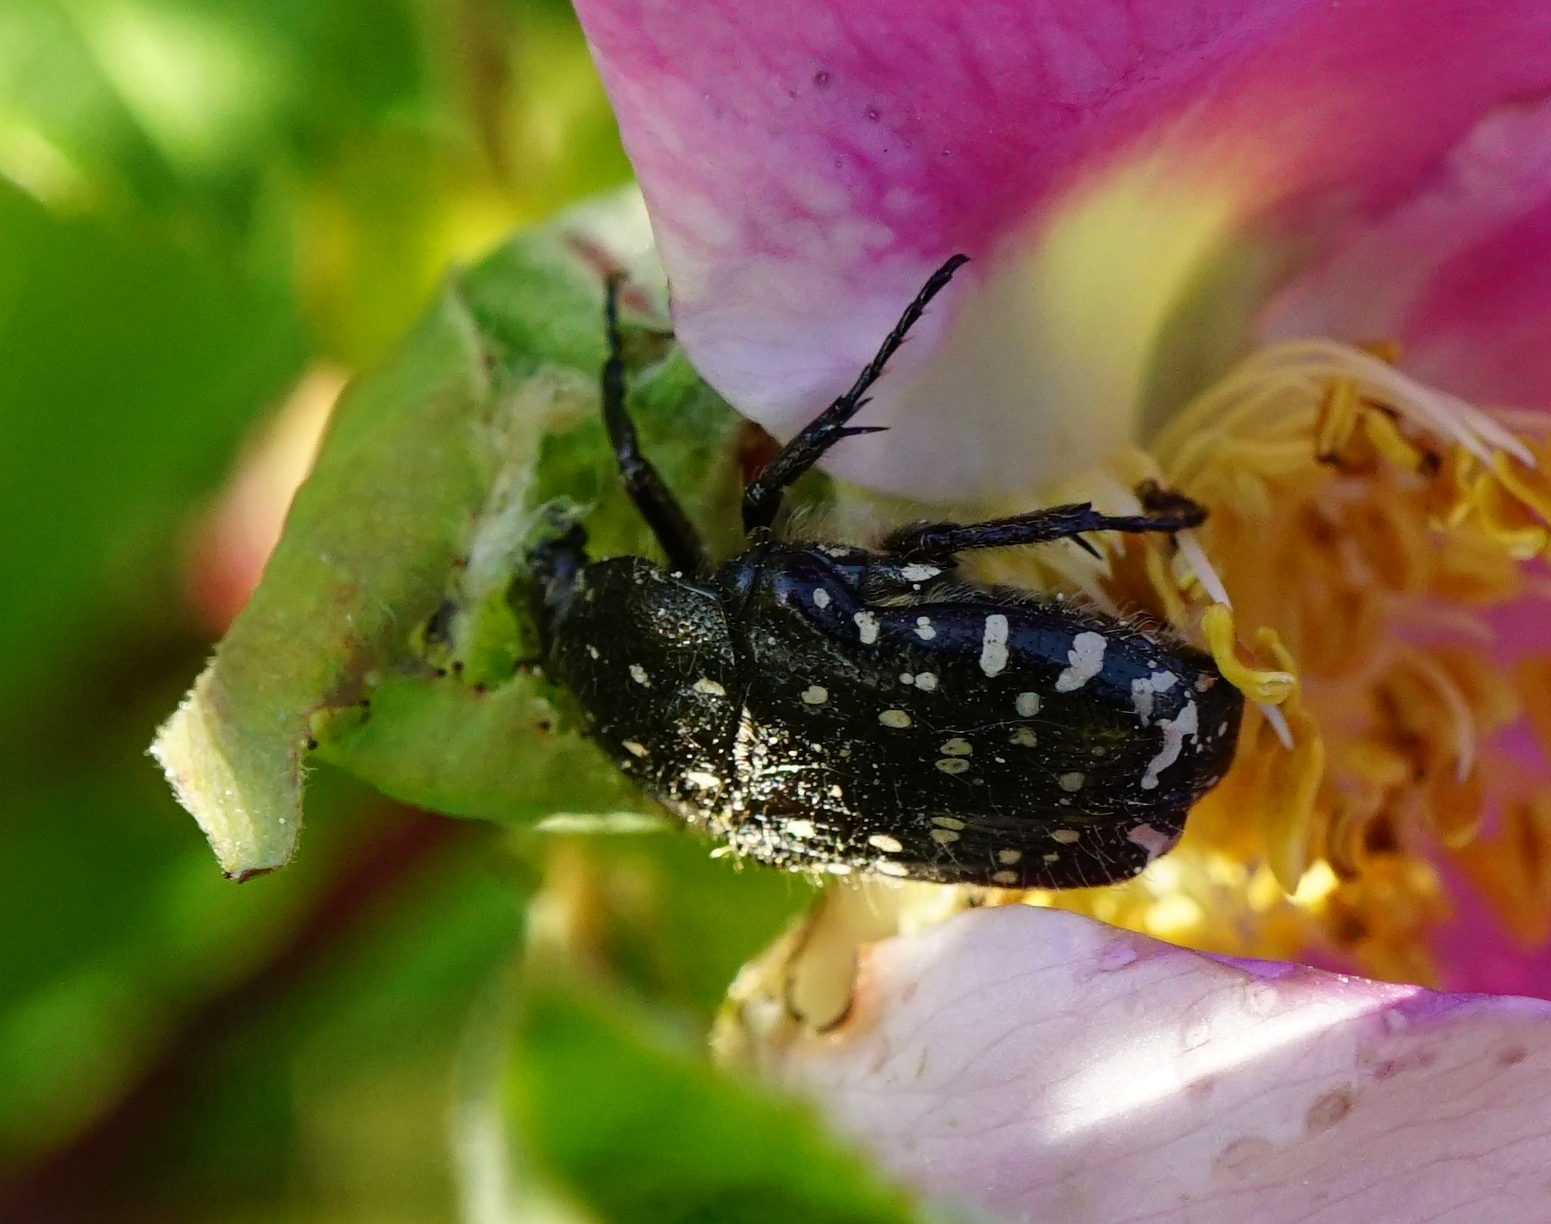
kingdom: Animalia
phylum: Arthropoda
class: Insecta
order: Coleoptera
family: Scarabaeidae
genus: Oxythyrea
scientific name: Oxythyrea funesta
